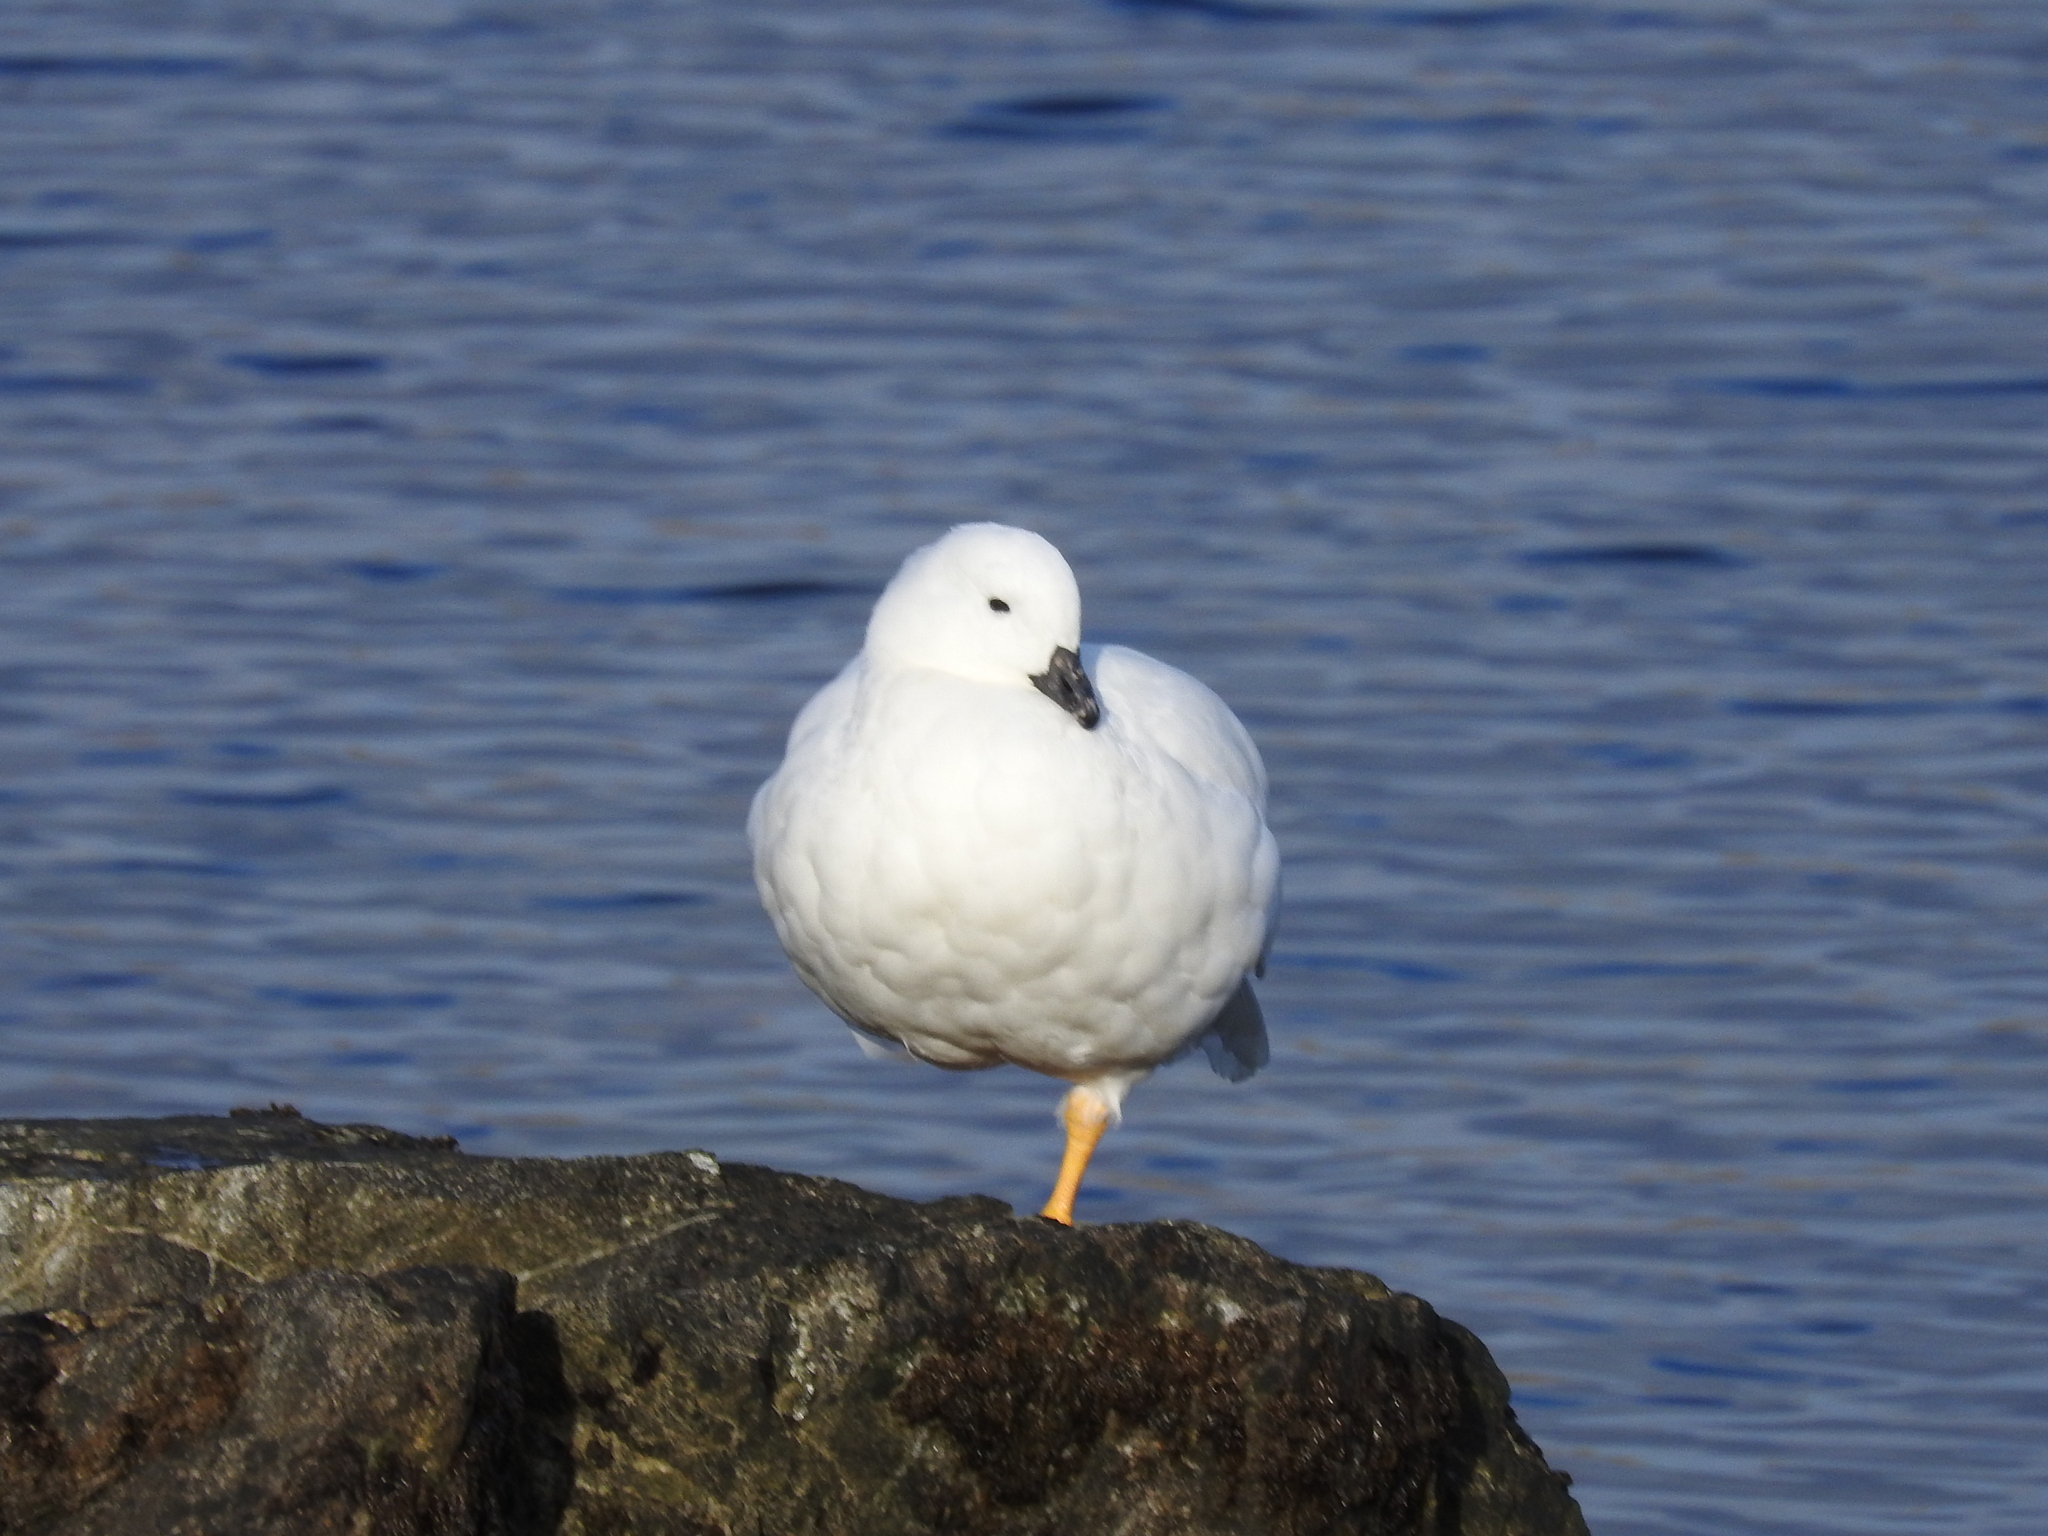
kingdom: Animalia
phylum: Chordata
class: Aves
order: Anseriformes
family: Anatidae
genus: Chloephaga
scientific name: Chloephaga hybrida
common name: Kelp goose
